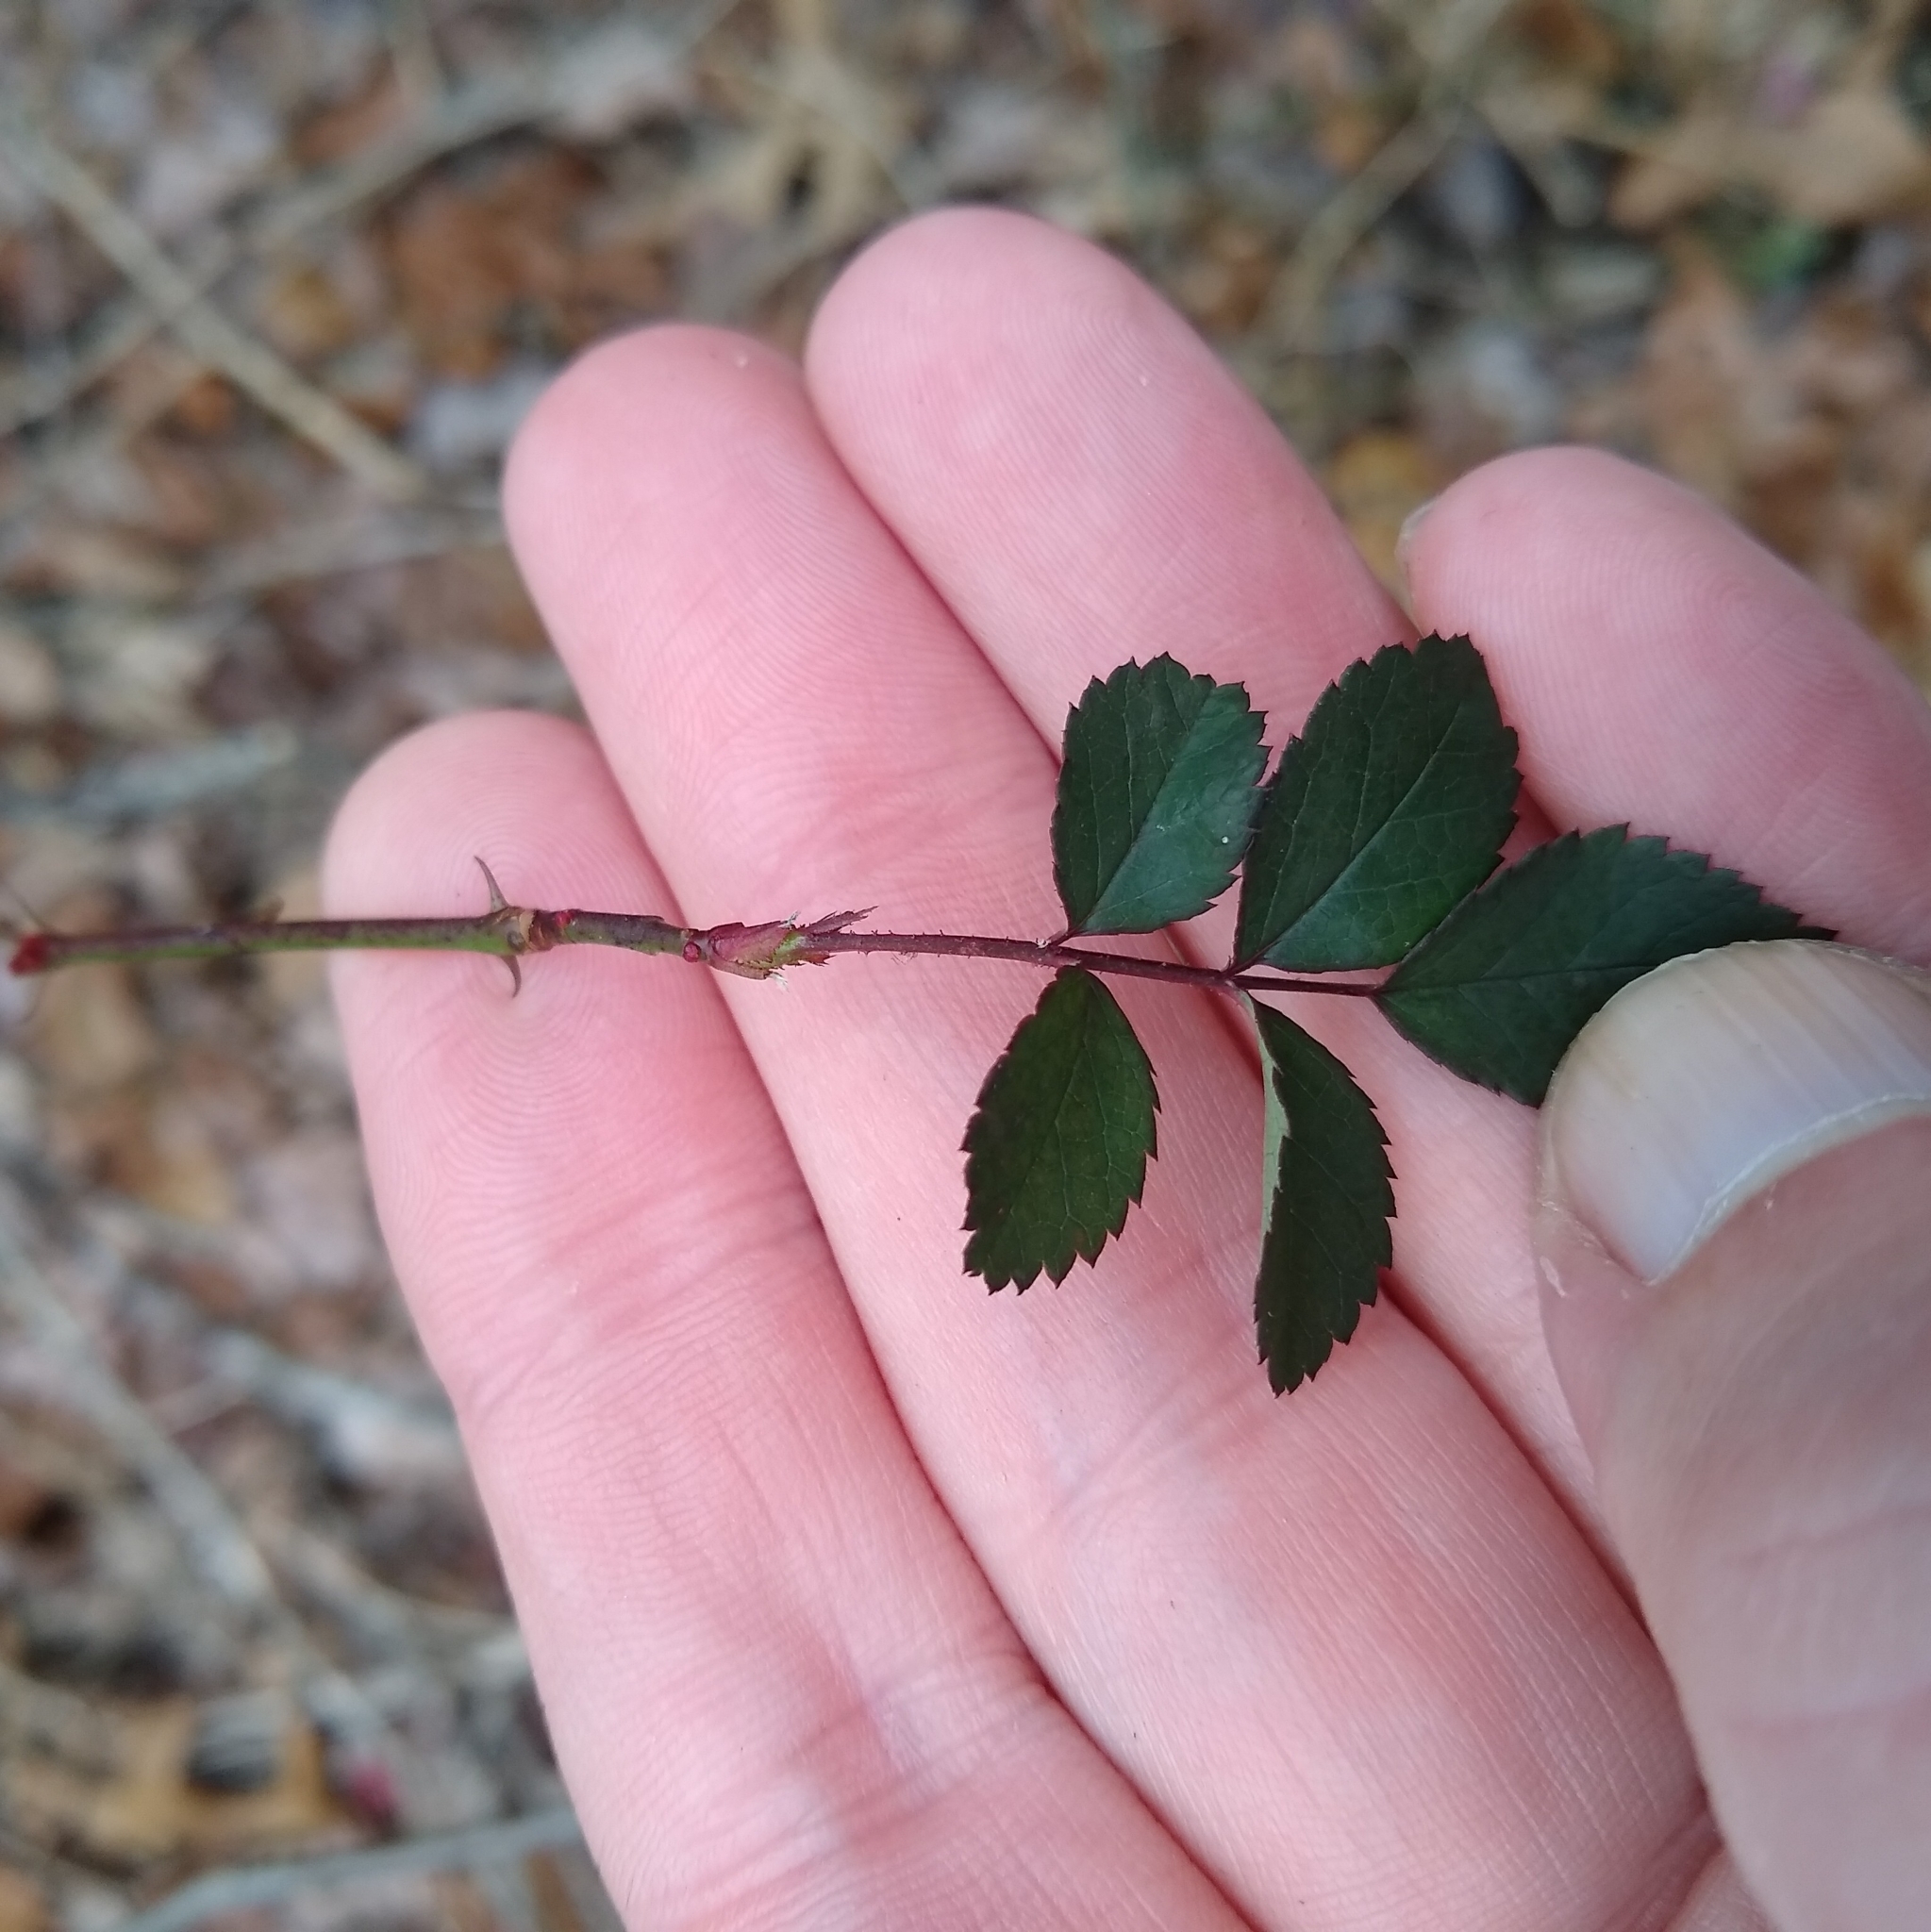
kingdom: Plantae
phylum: Tracheophyta
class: Magnoliopsida
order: Rosales
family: Rosaceae
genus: Rosa
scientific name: Rosa multiflora
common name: Multiflora rose
